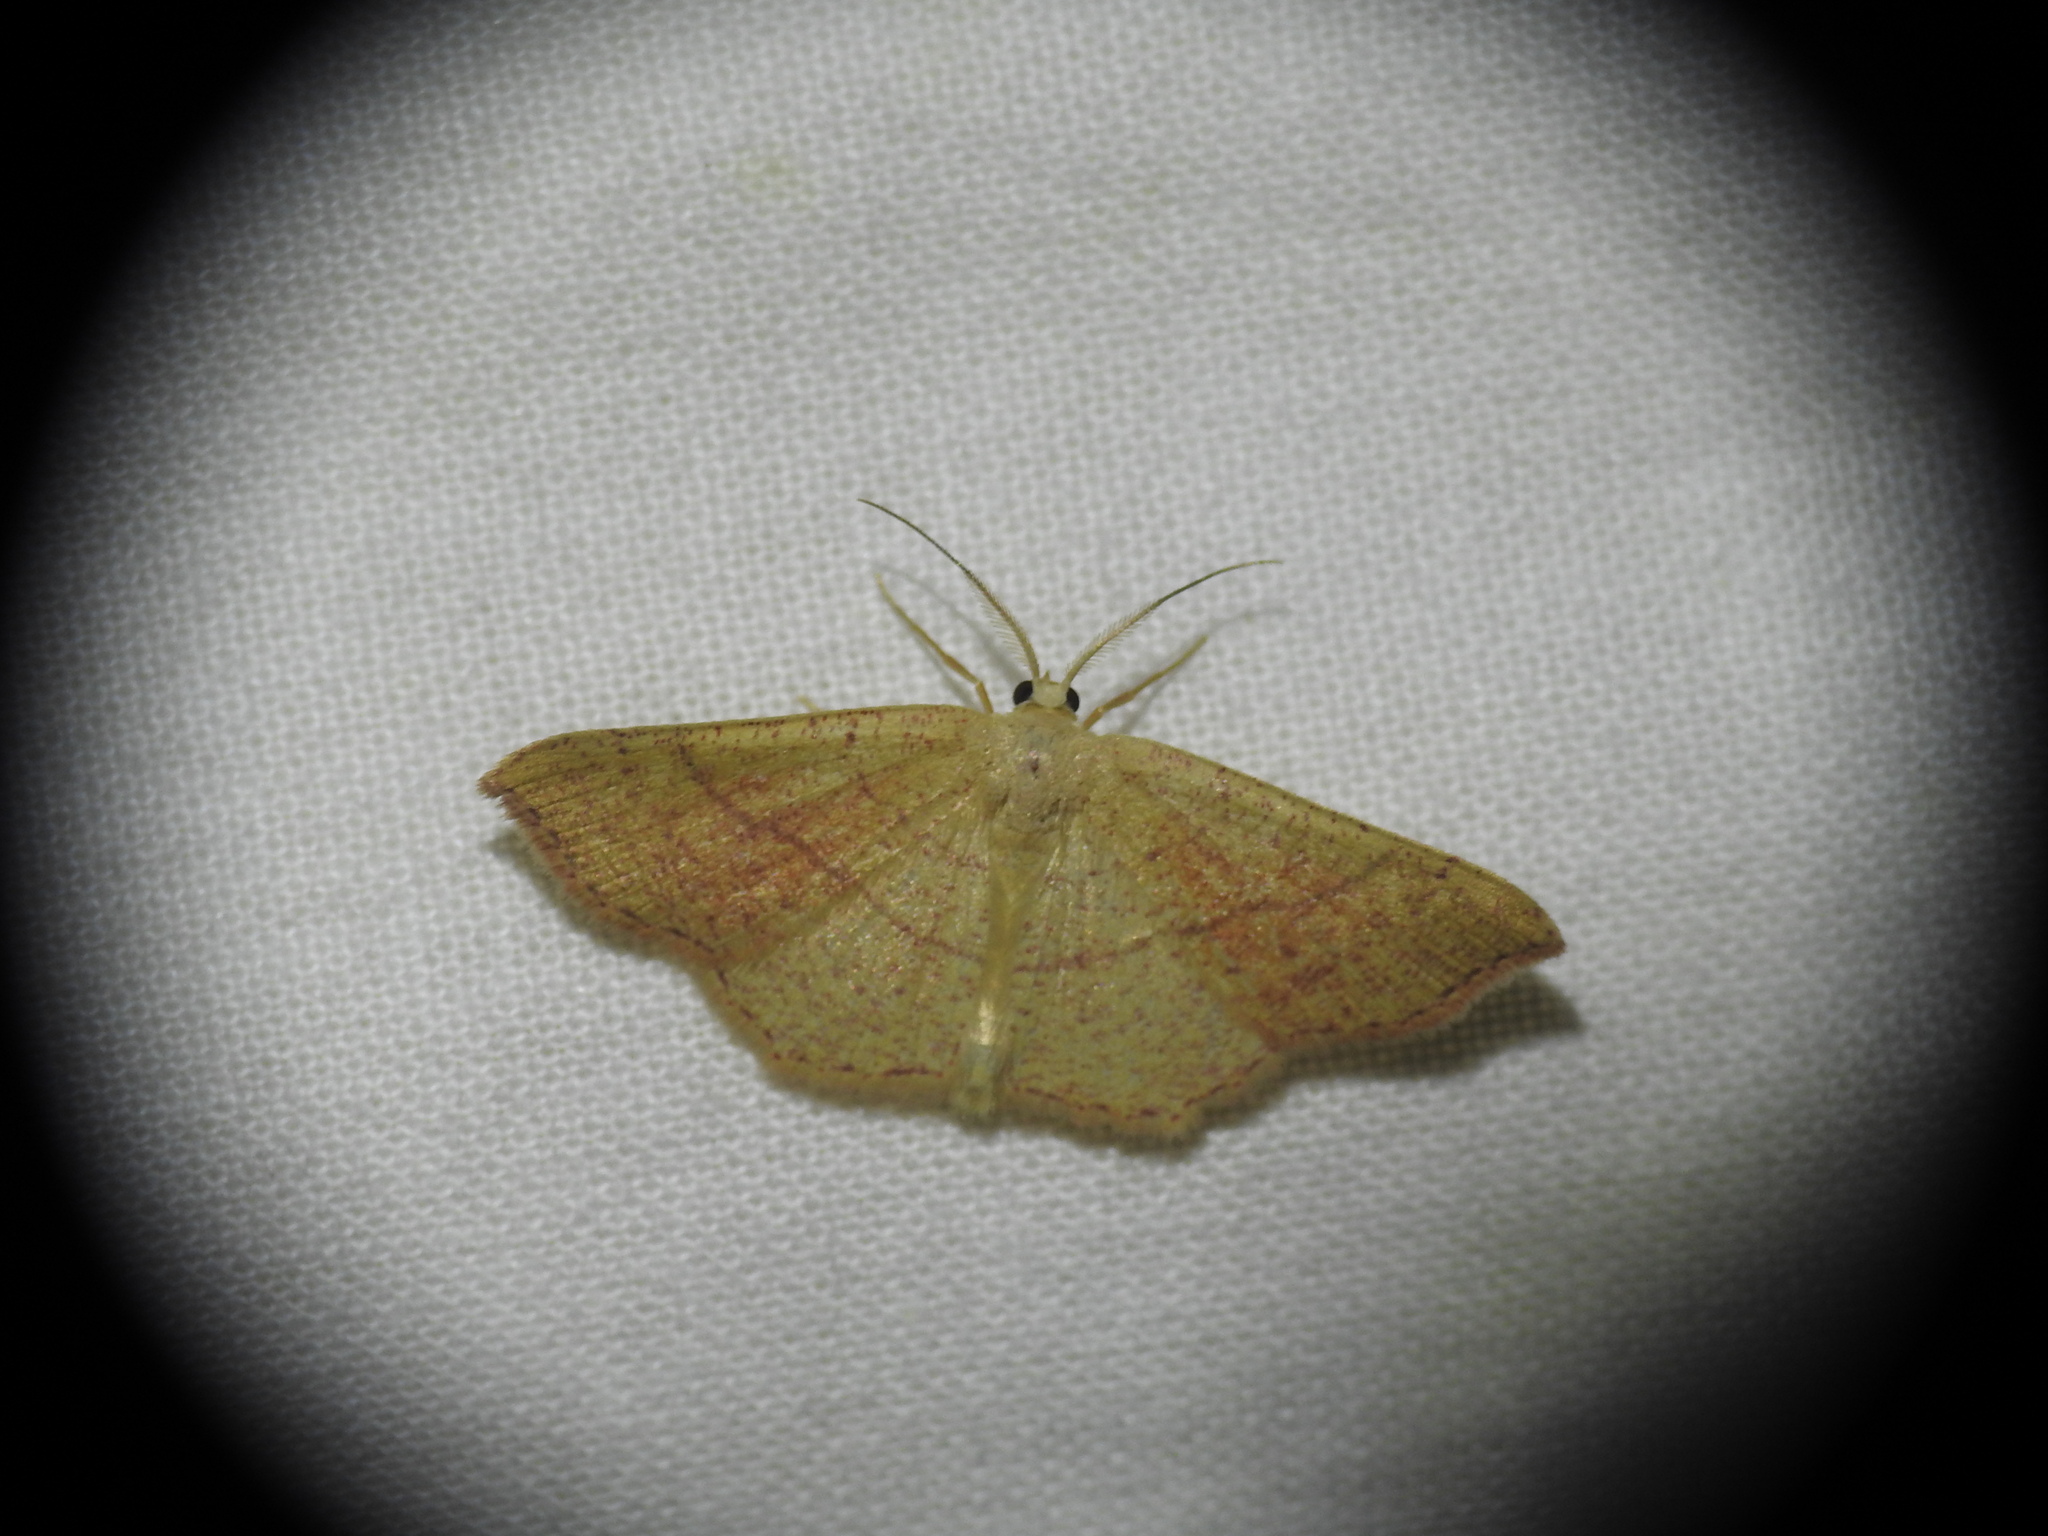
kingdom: Animalia
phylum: Arthropoda
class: Insecta
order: Lepidoptera
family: Geometridae
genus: Cyclophora
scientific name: Cyclophora suppunctaria
